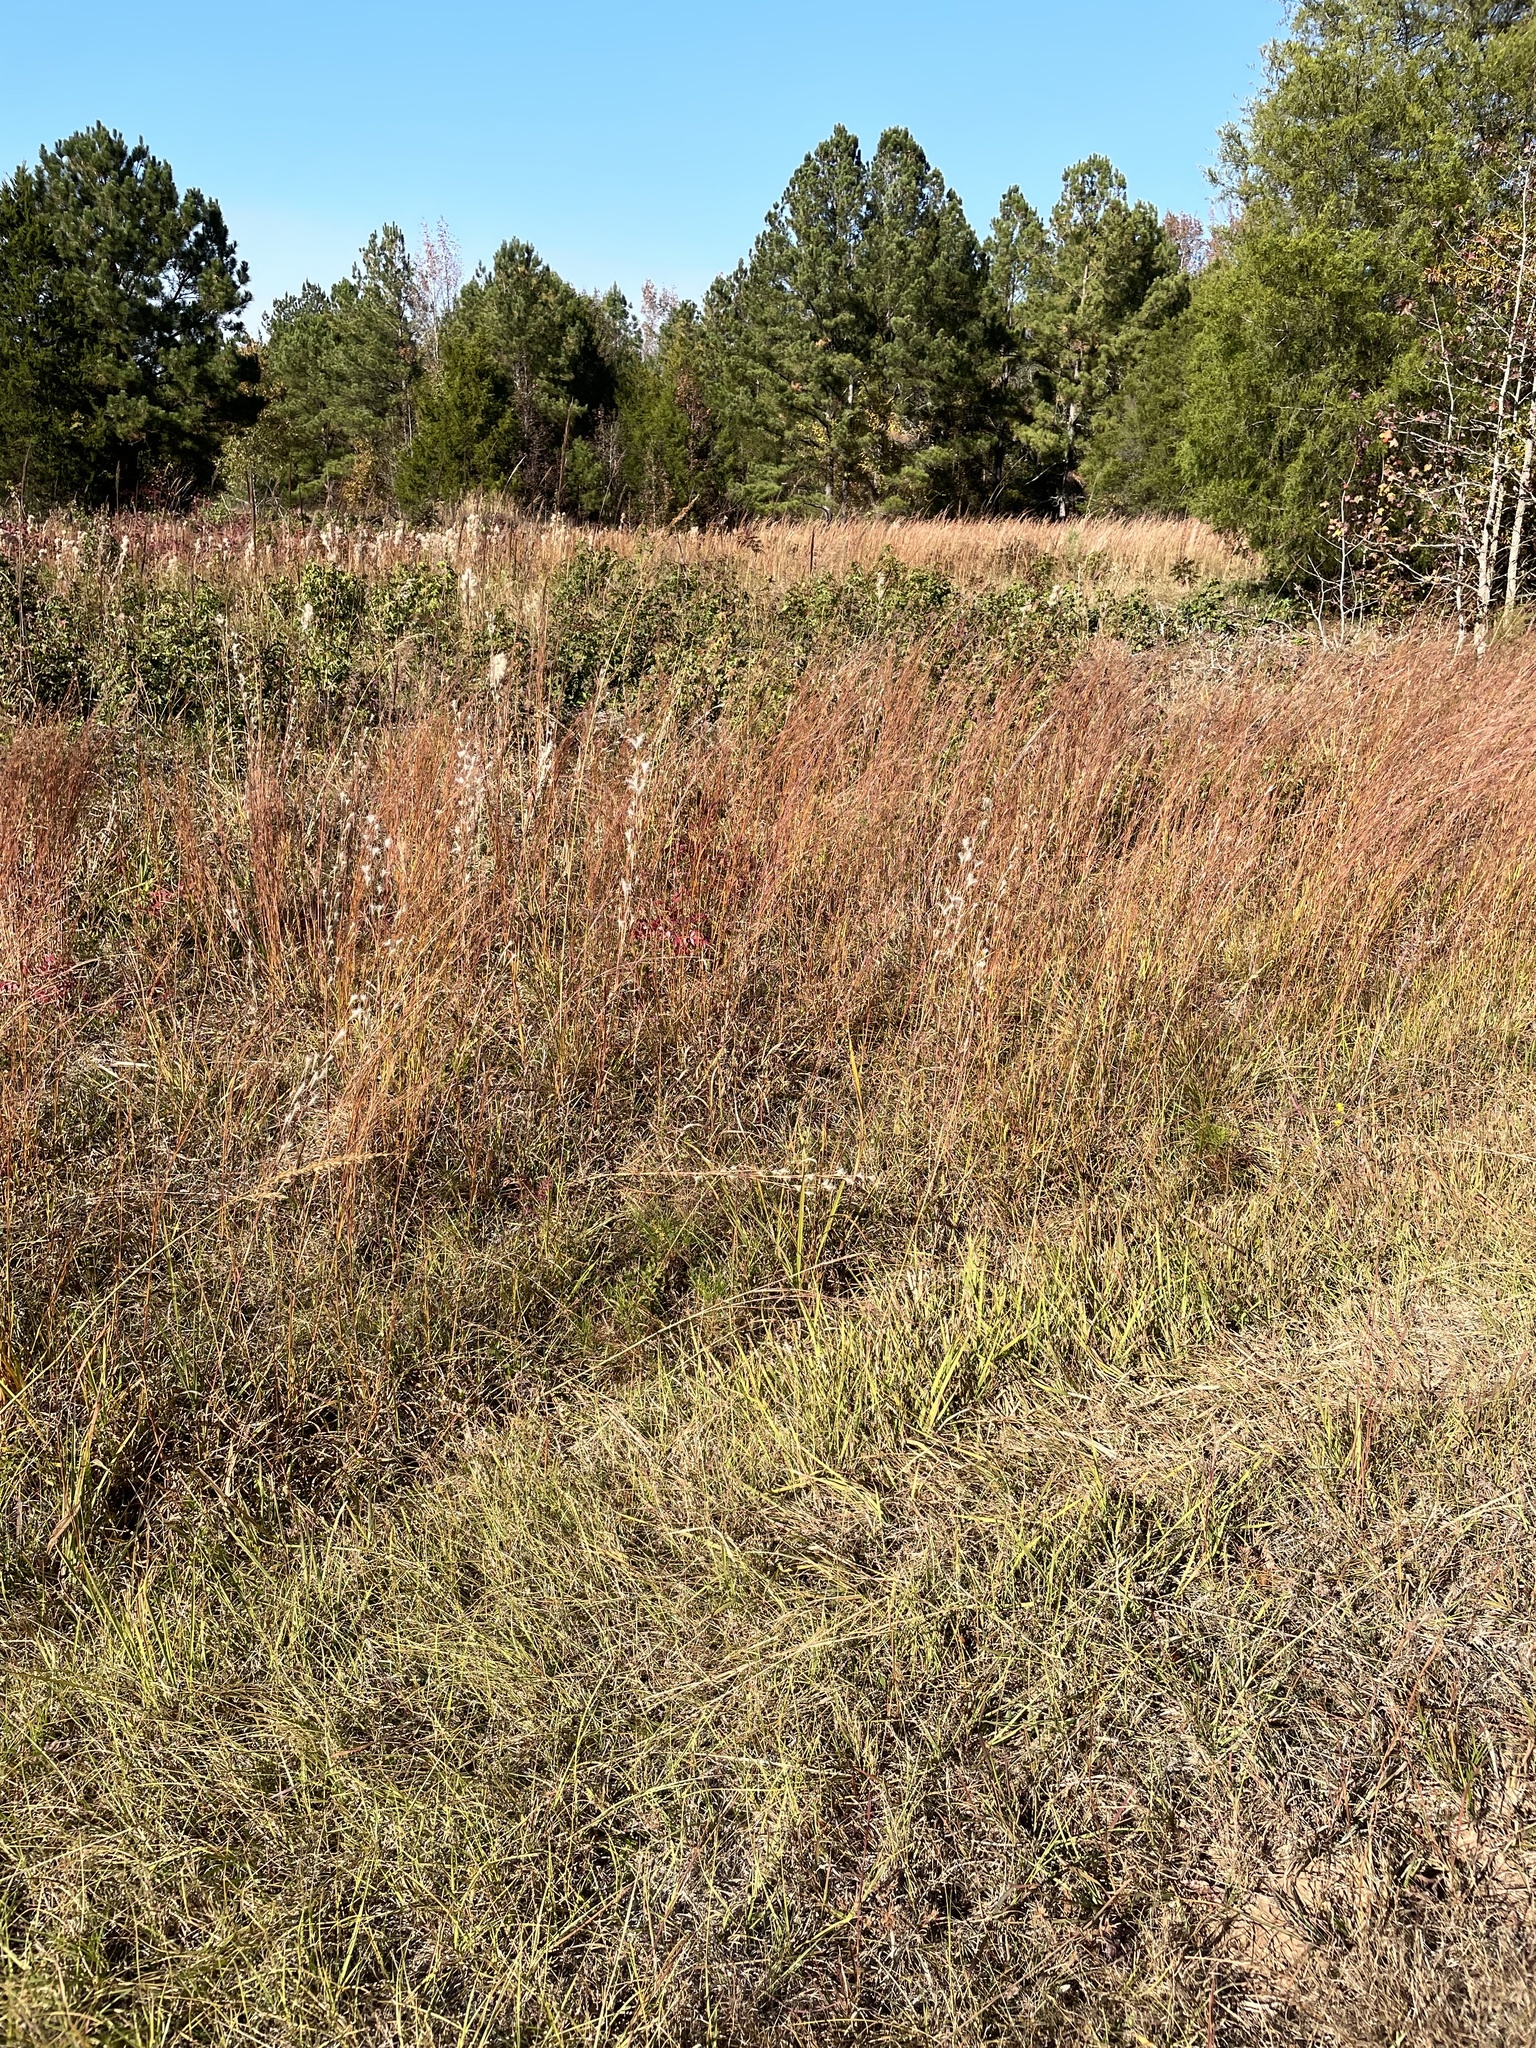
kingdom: Plantae
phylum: Tracheophyta
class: Liliopsida
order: Poales
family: Poaceae
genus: Andropogon
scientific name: Andropogon ternarius
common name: Split bluestem
